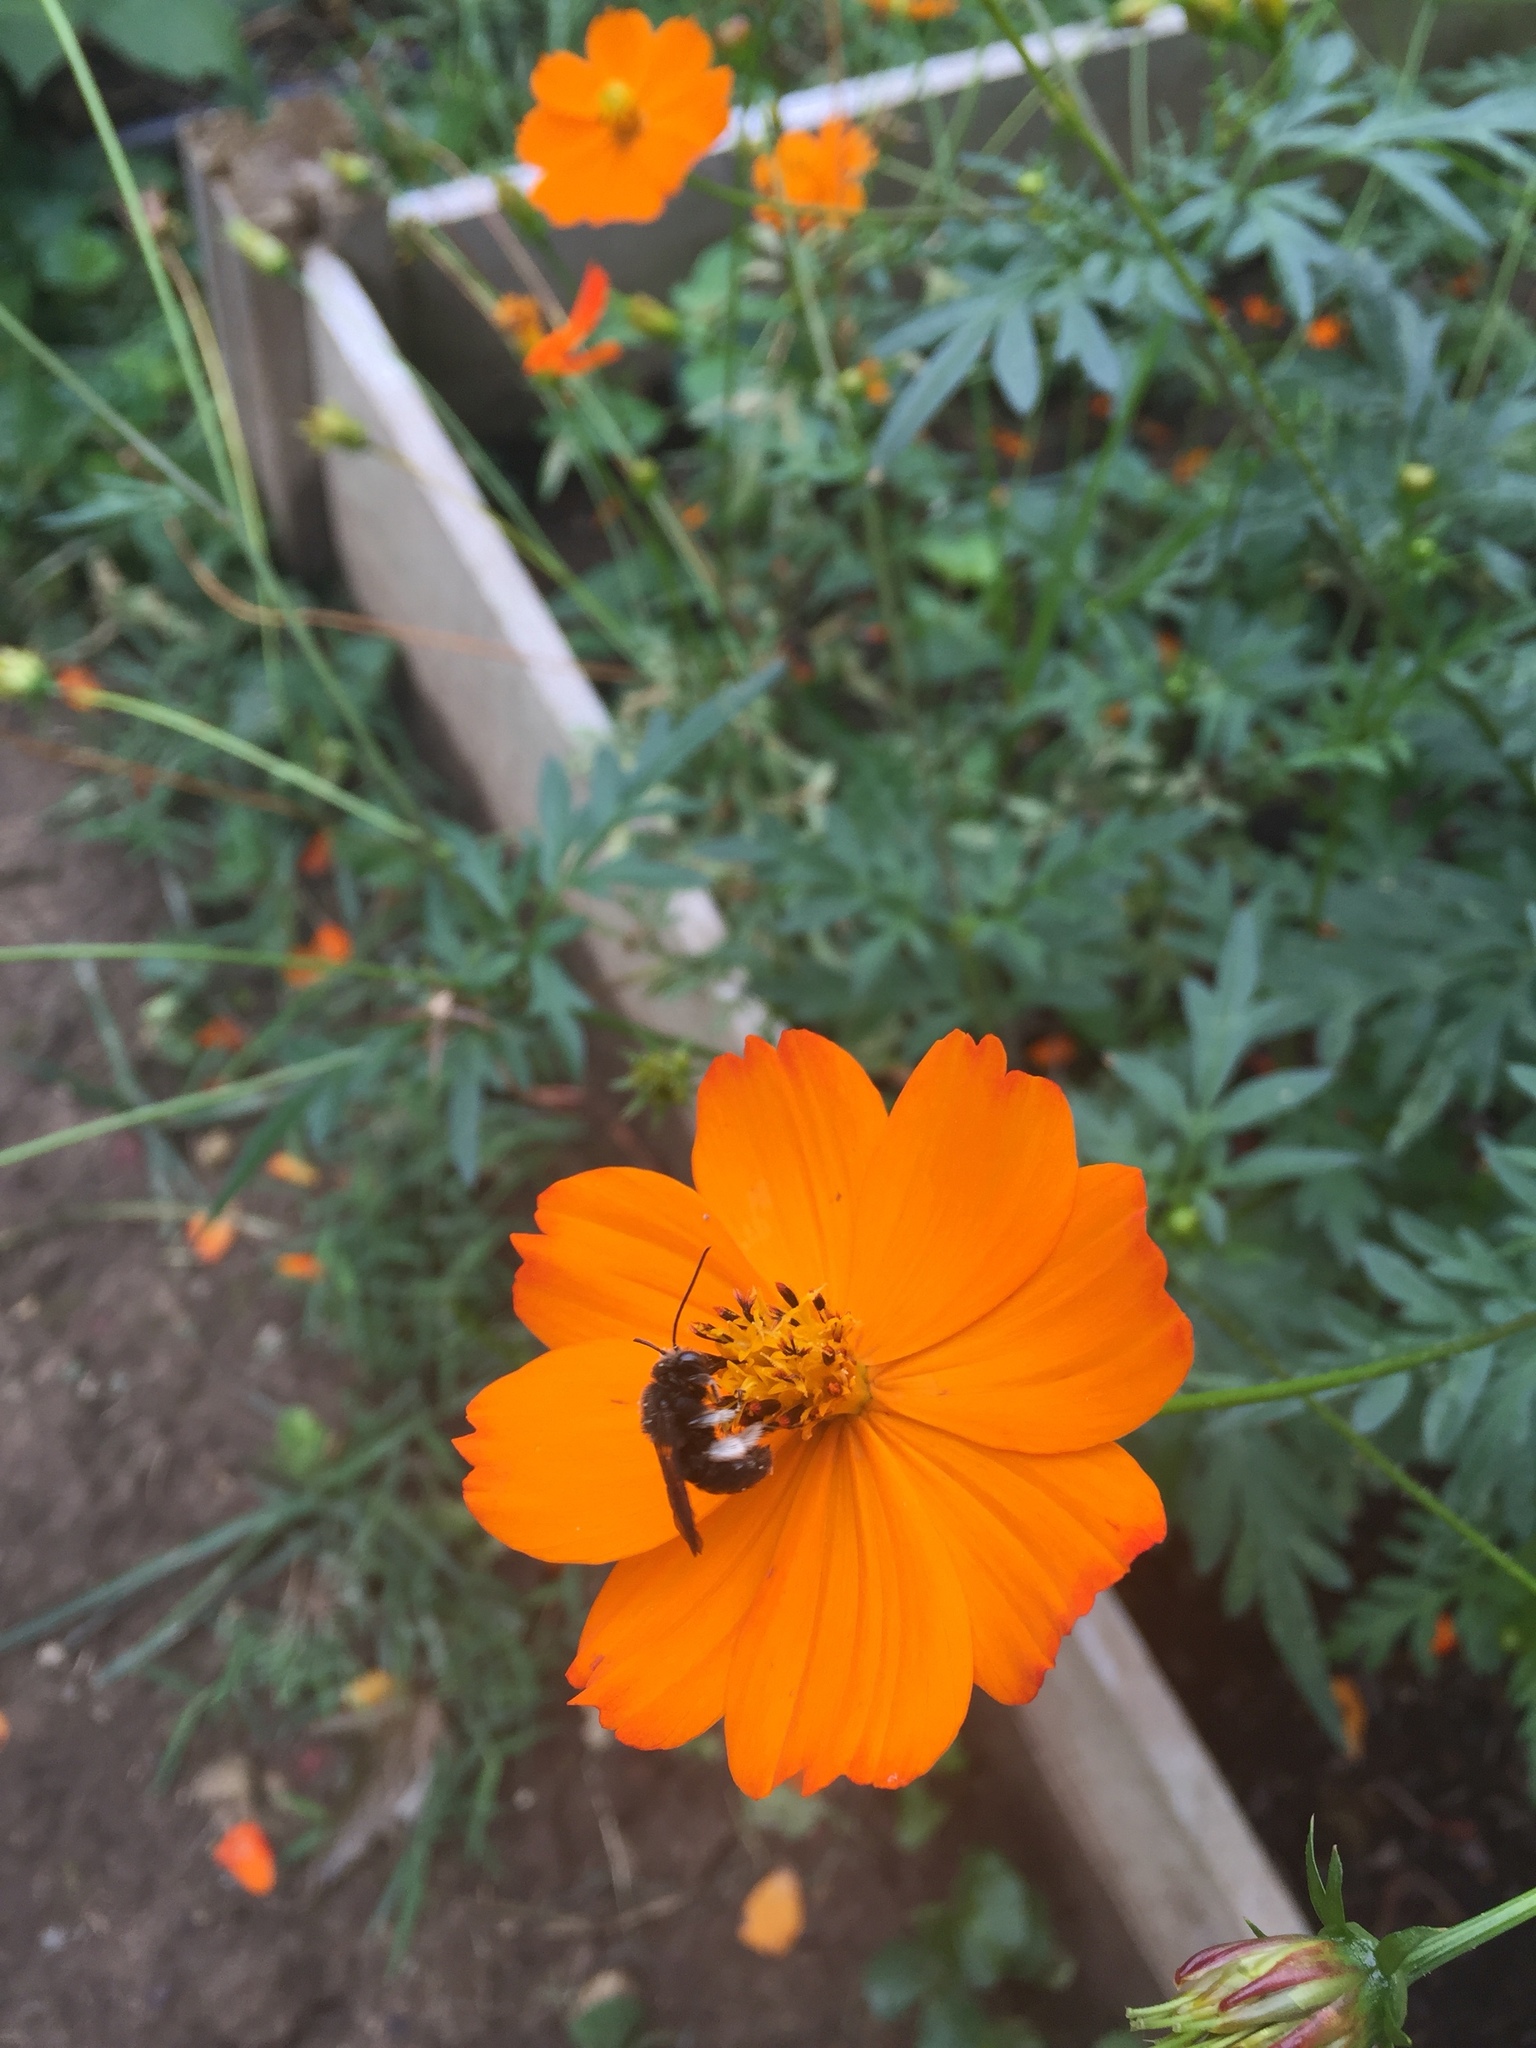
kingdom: Animalia
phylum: Arthropoda
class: Insecta
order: Hymenoptera
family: Apidae
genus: Melissodes
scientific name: Melissodes bimaculatus
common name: Two-spotted long-horned bee
